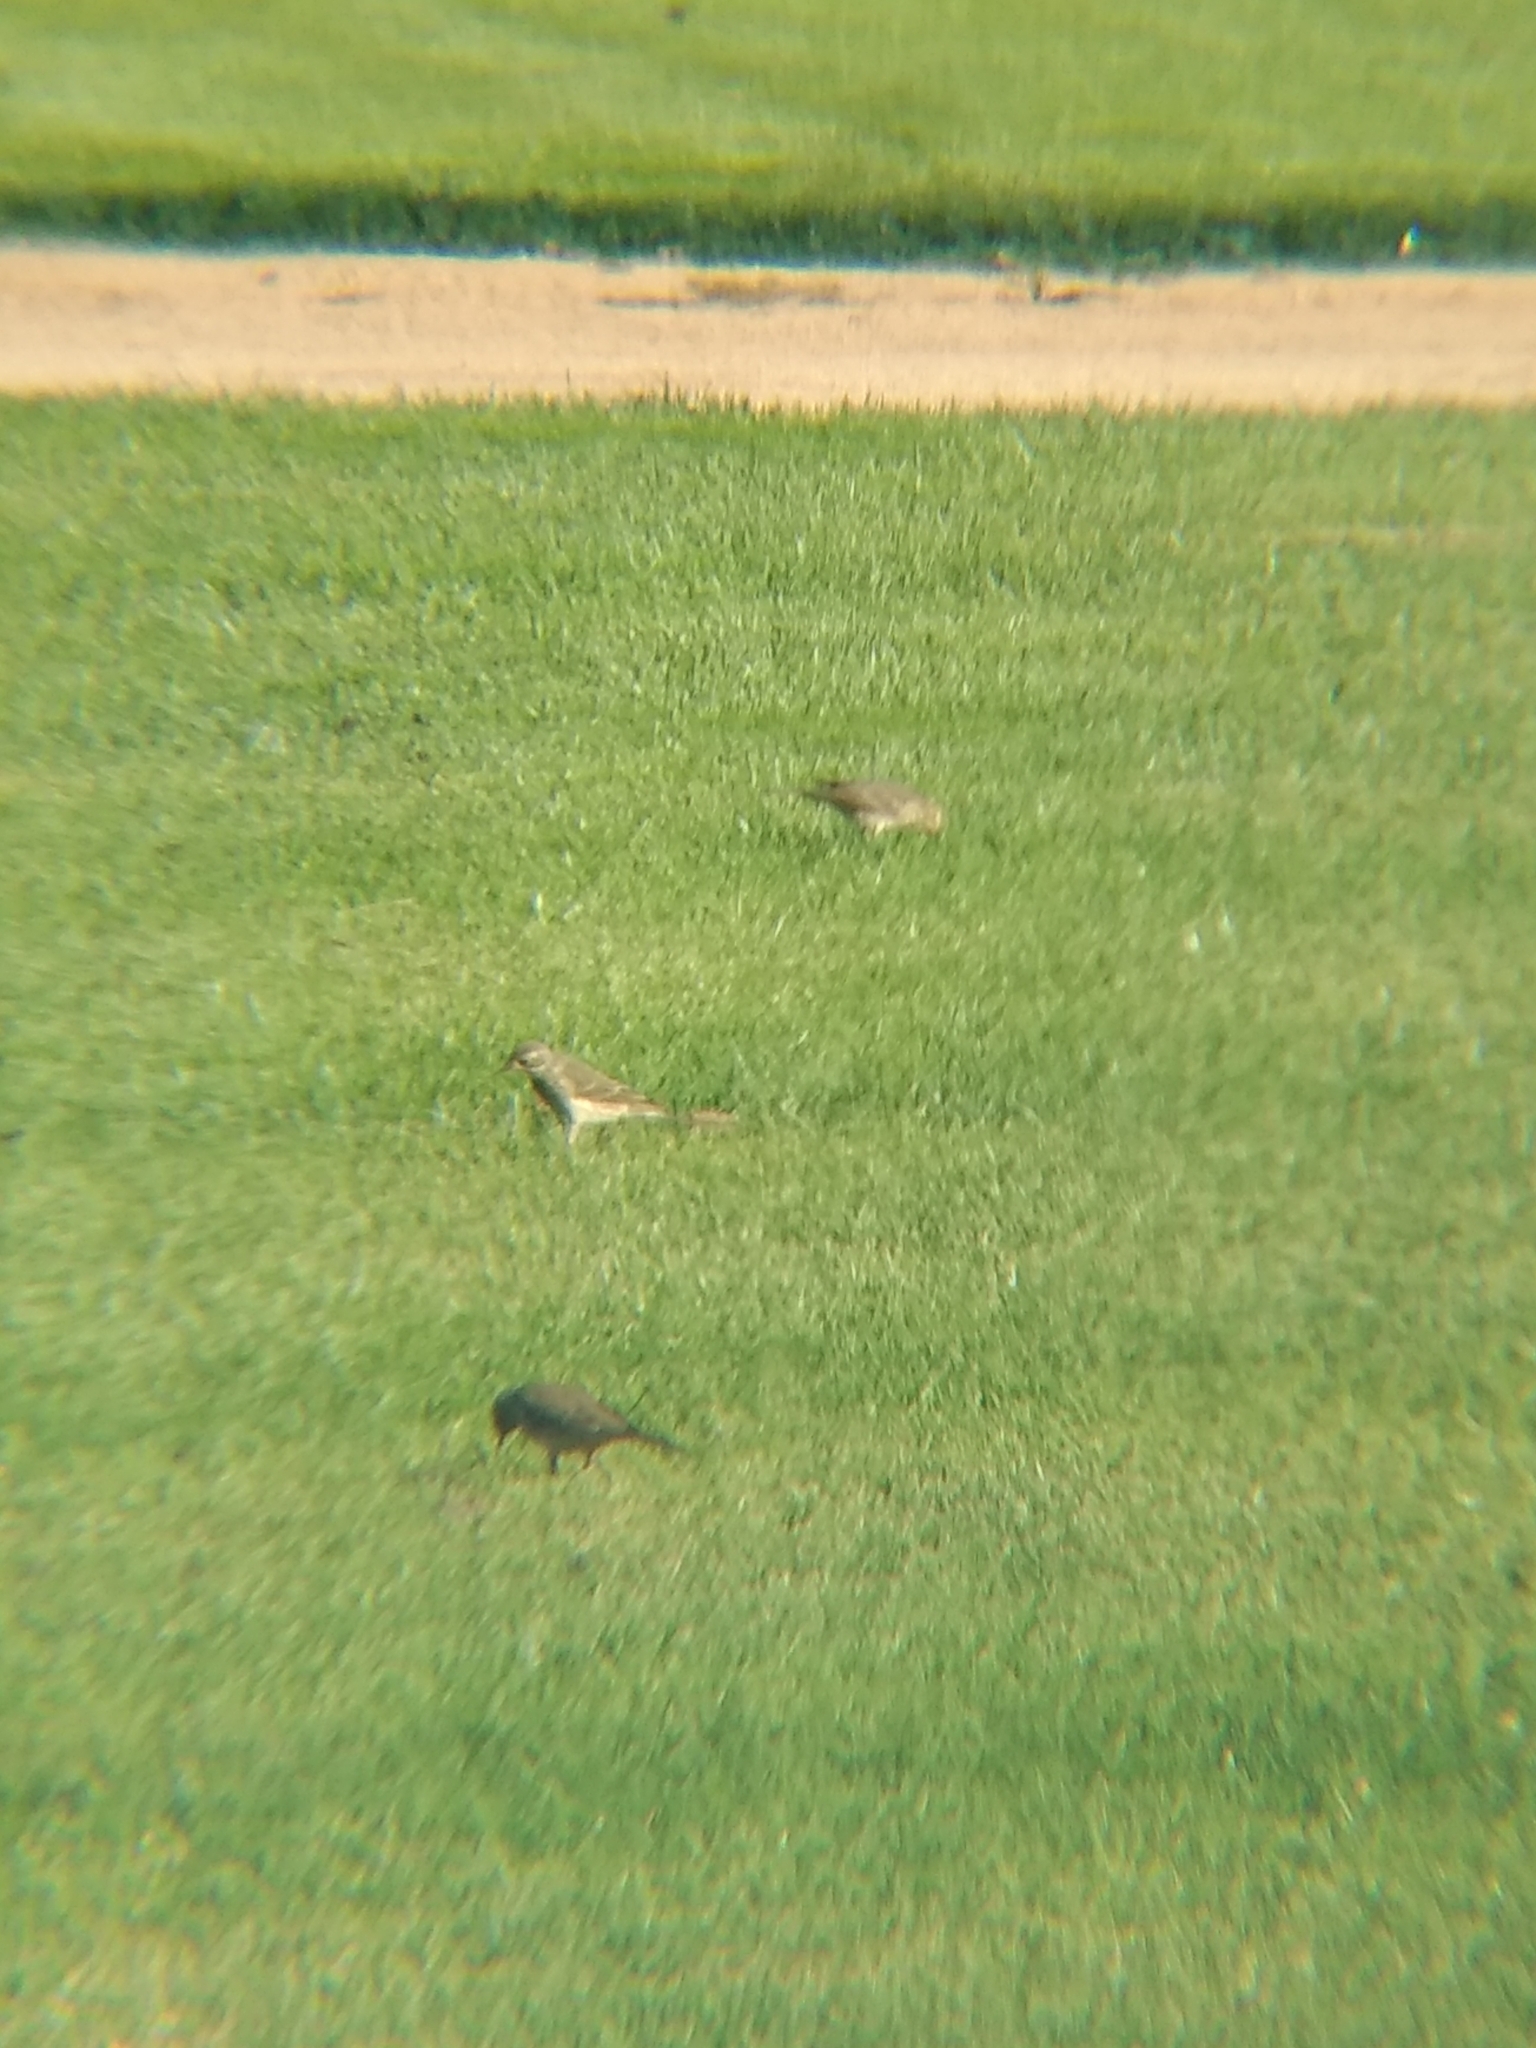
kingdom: Animalia
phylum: Chordata
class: Aves
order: Passeriformes
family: Motacillidae
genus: Anthus
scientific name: Anthus rubescens
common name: Buff-bellied pipit
